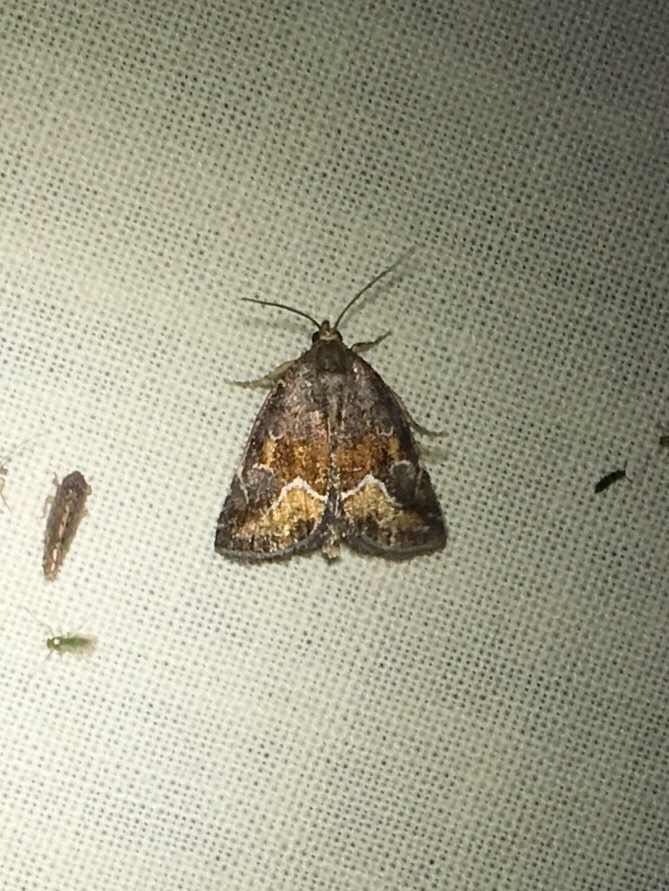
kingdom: Animalia
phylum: Arthropoda
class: Insecta
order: Lepidoptera
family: Noctuidae
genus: Deltote
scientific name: Deltote bellicula
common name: Bog glyph
